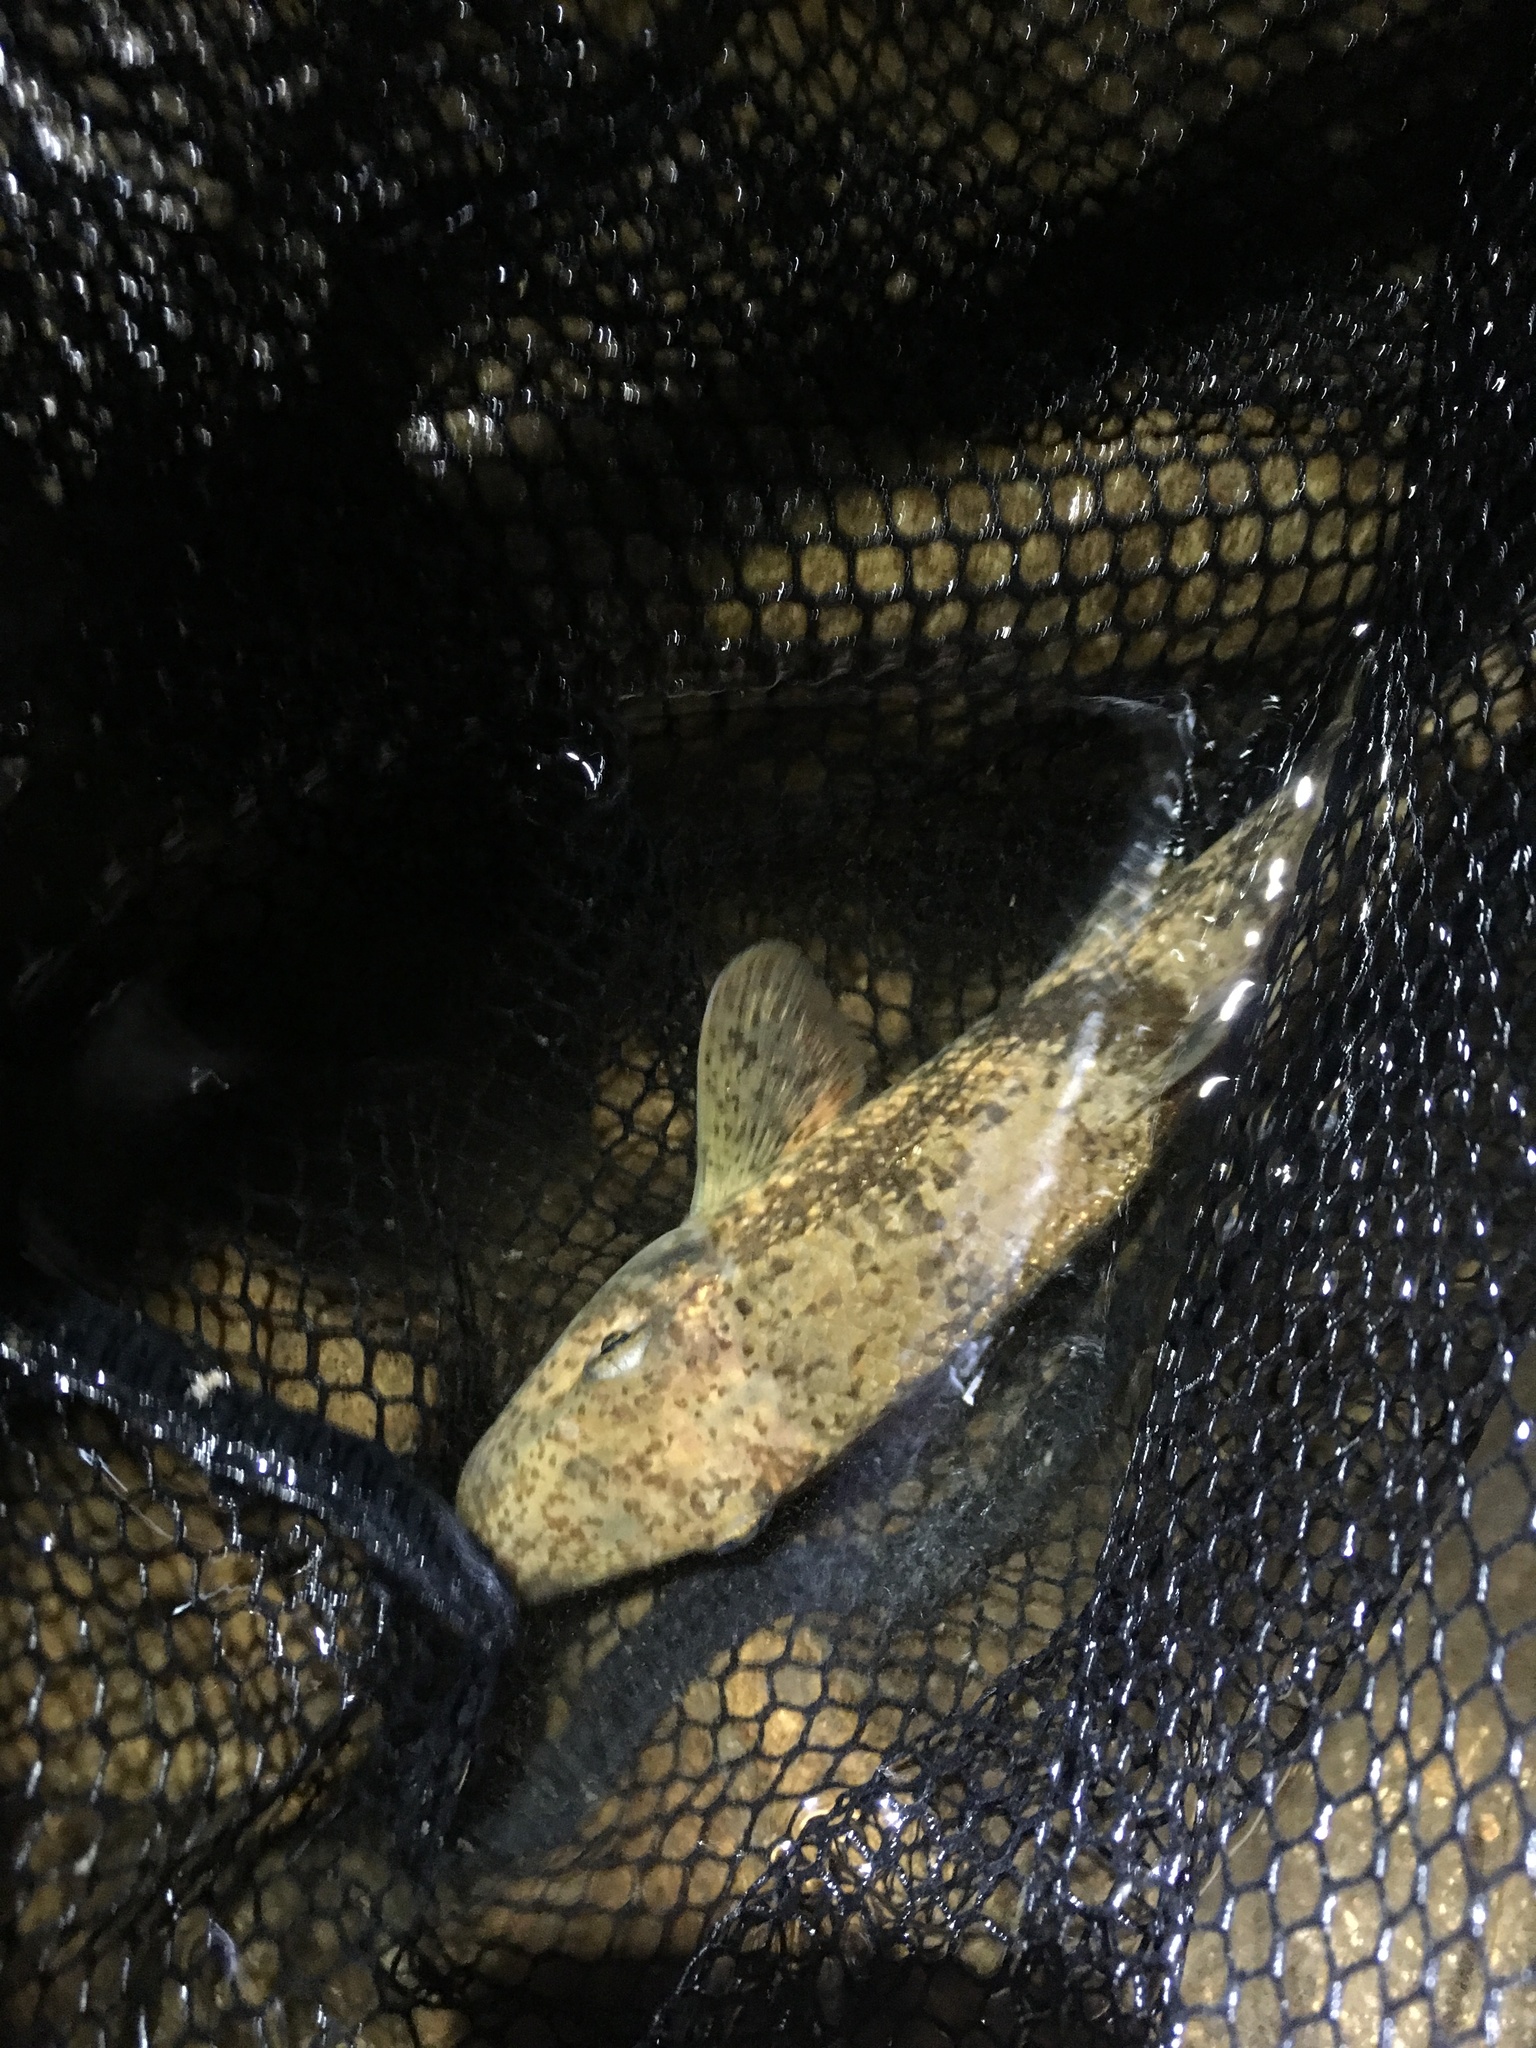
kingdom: Animalia
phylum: Chordata
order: Cypriniformes
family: Catostomidae
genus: Hypentelium
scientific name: Hypentelium nigricans
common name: Northern hog sucker
